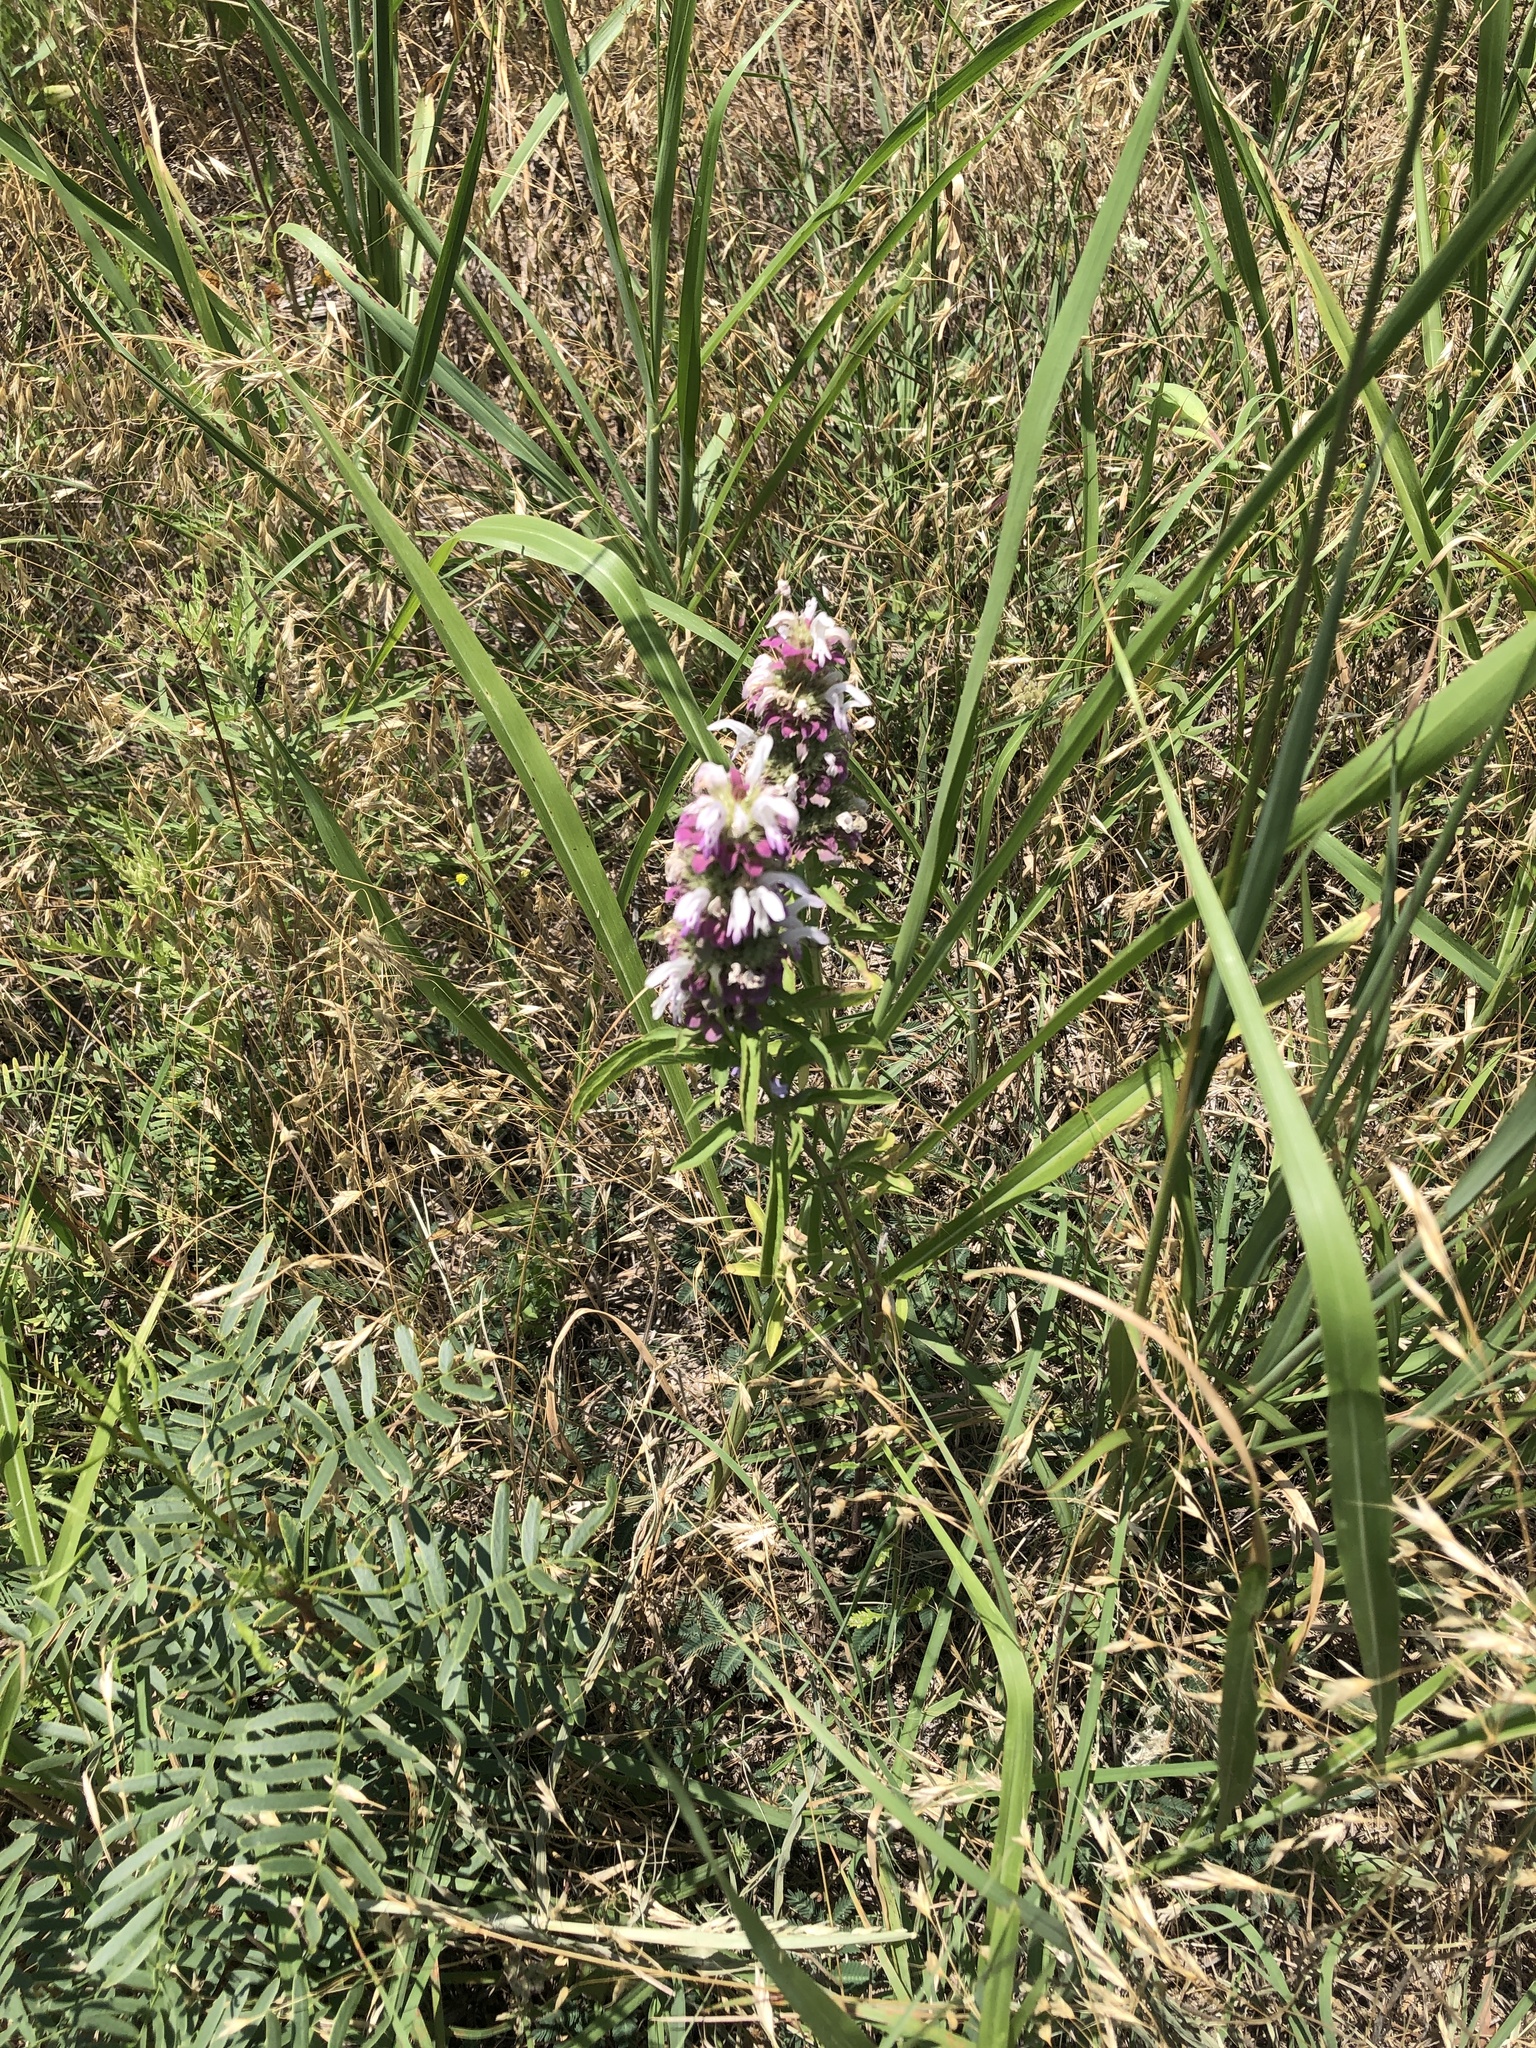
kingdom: Plantae
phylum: Tracheophyta
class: Magnoliopsida
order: Lamiales
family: Lamiaceae
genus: Monarda
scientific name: Monarda citriodora
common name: Lemon beebalm
